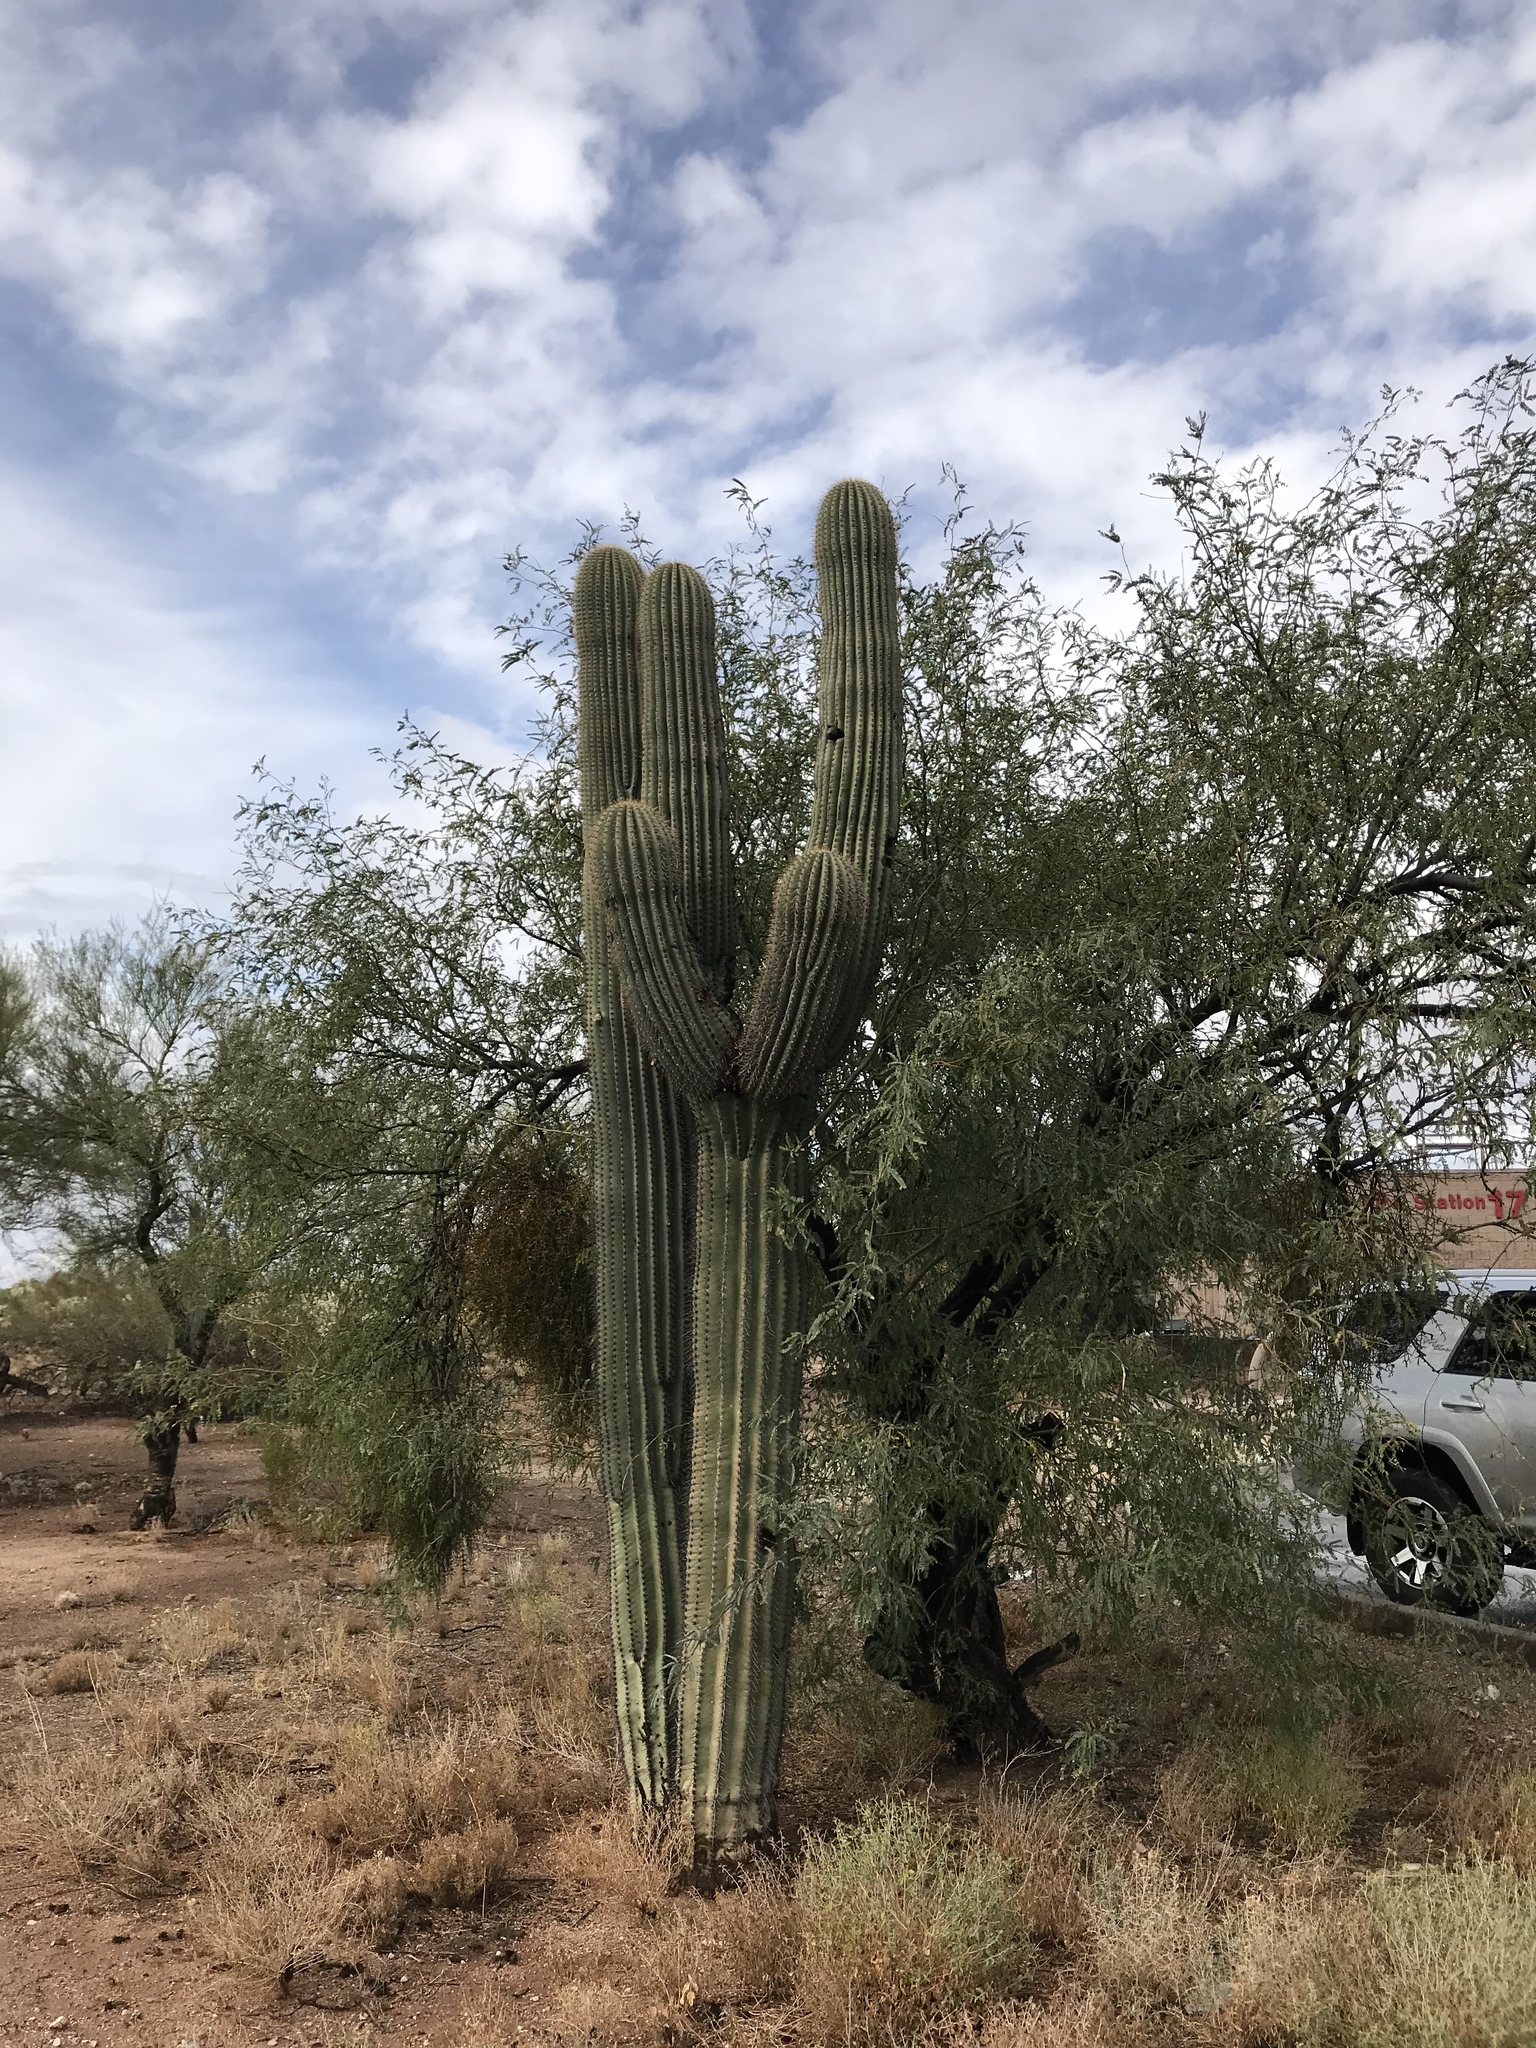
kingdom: Plantae
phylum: Tracheophyta
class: Magnoliopsida
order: Caryophyllales
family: Cactaceae
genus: Carnegiea
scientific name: Carnegiea gigantea
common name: Saguaro
